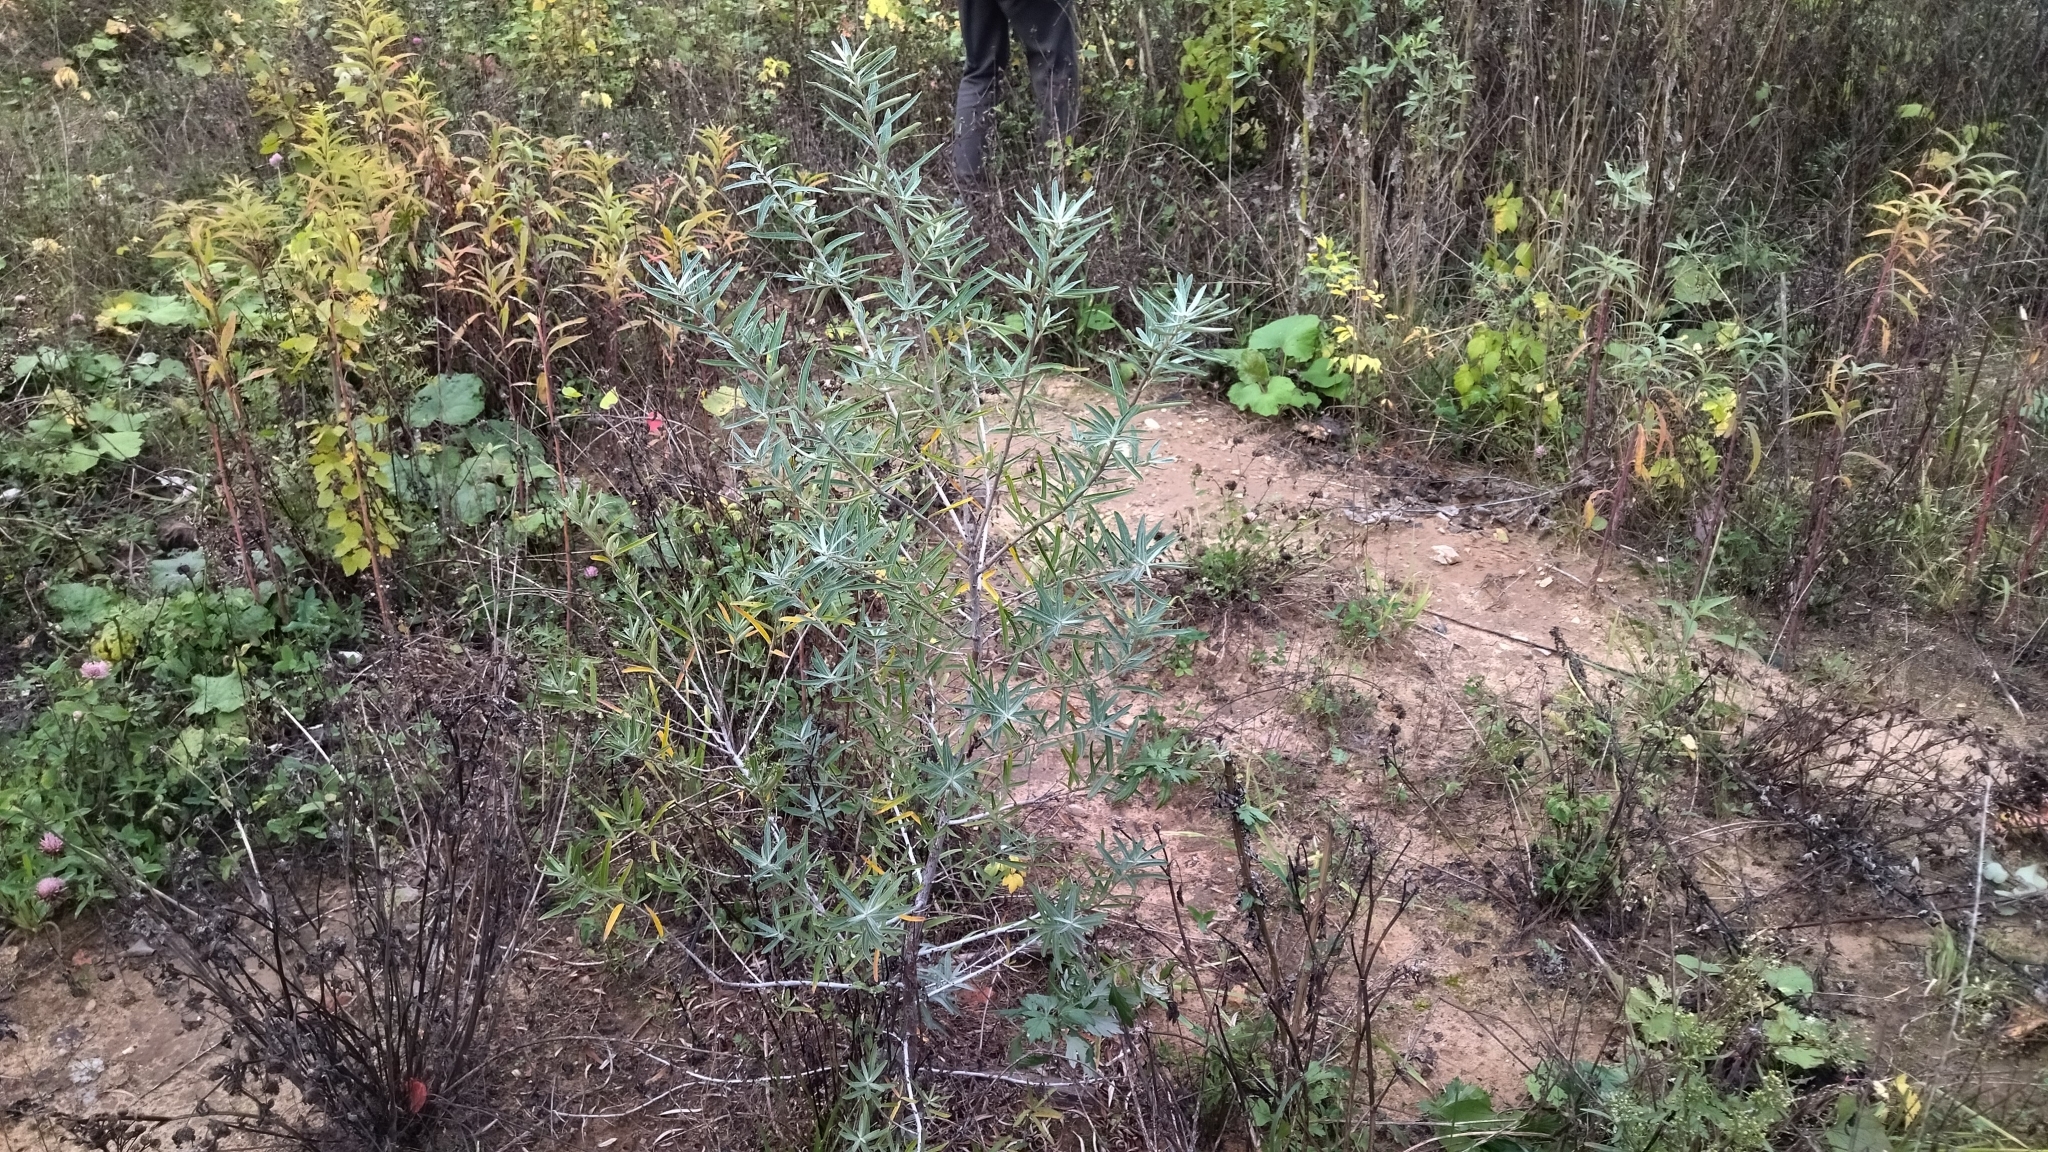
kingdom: Plantae
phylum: Tracheophyta
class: Magnoliopsida
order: Rosales
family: Elaeagnaceae
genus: Hippophae
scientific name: Hippophae rhamnoides
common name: Sea-buckthorn
